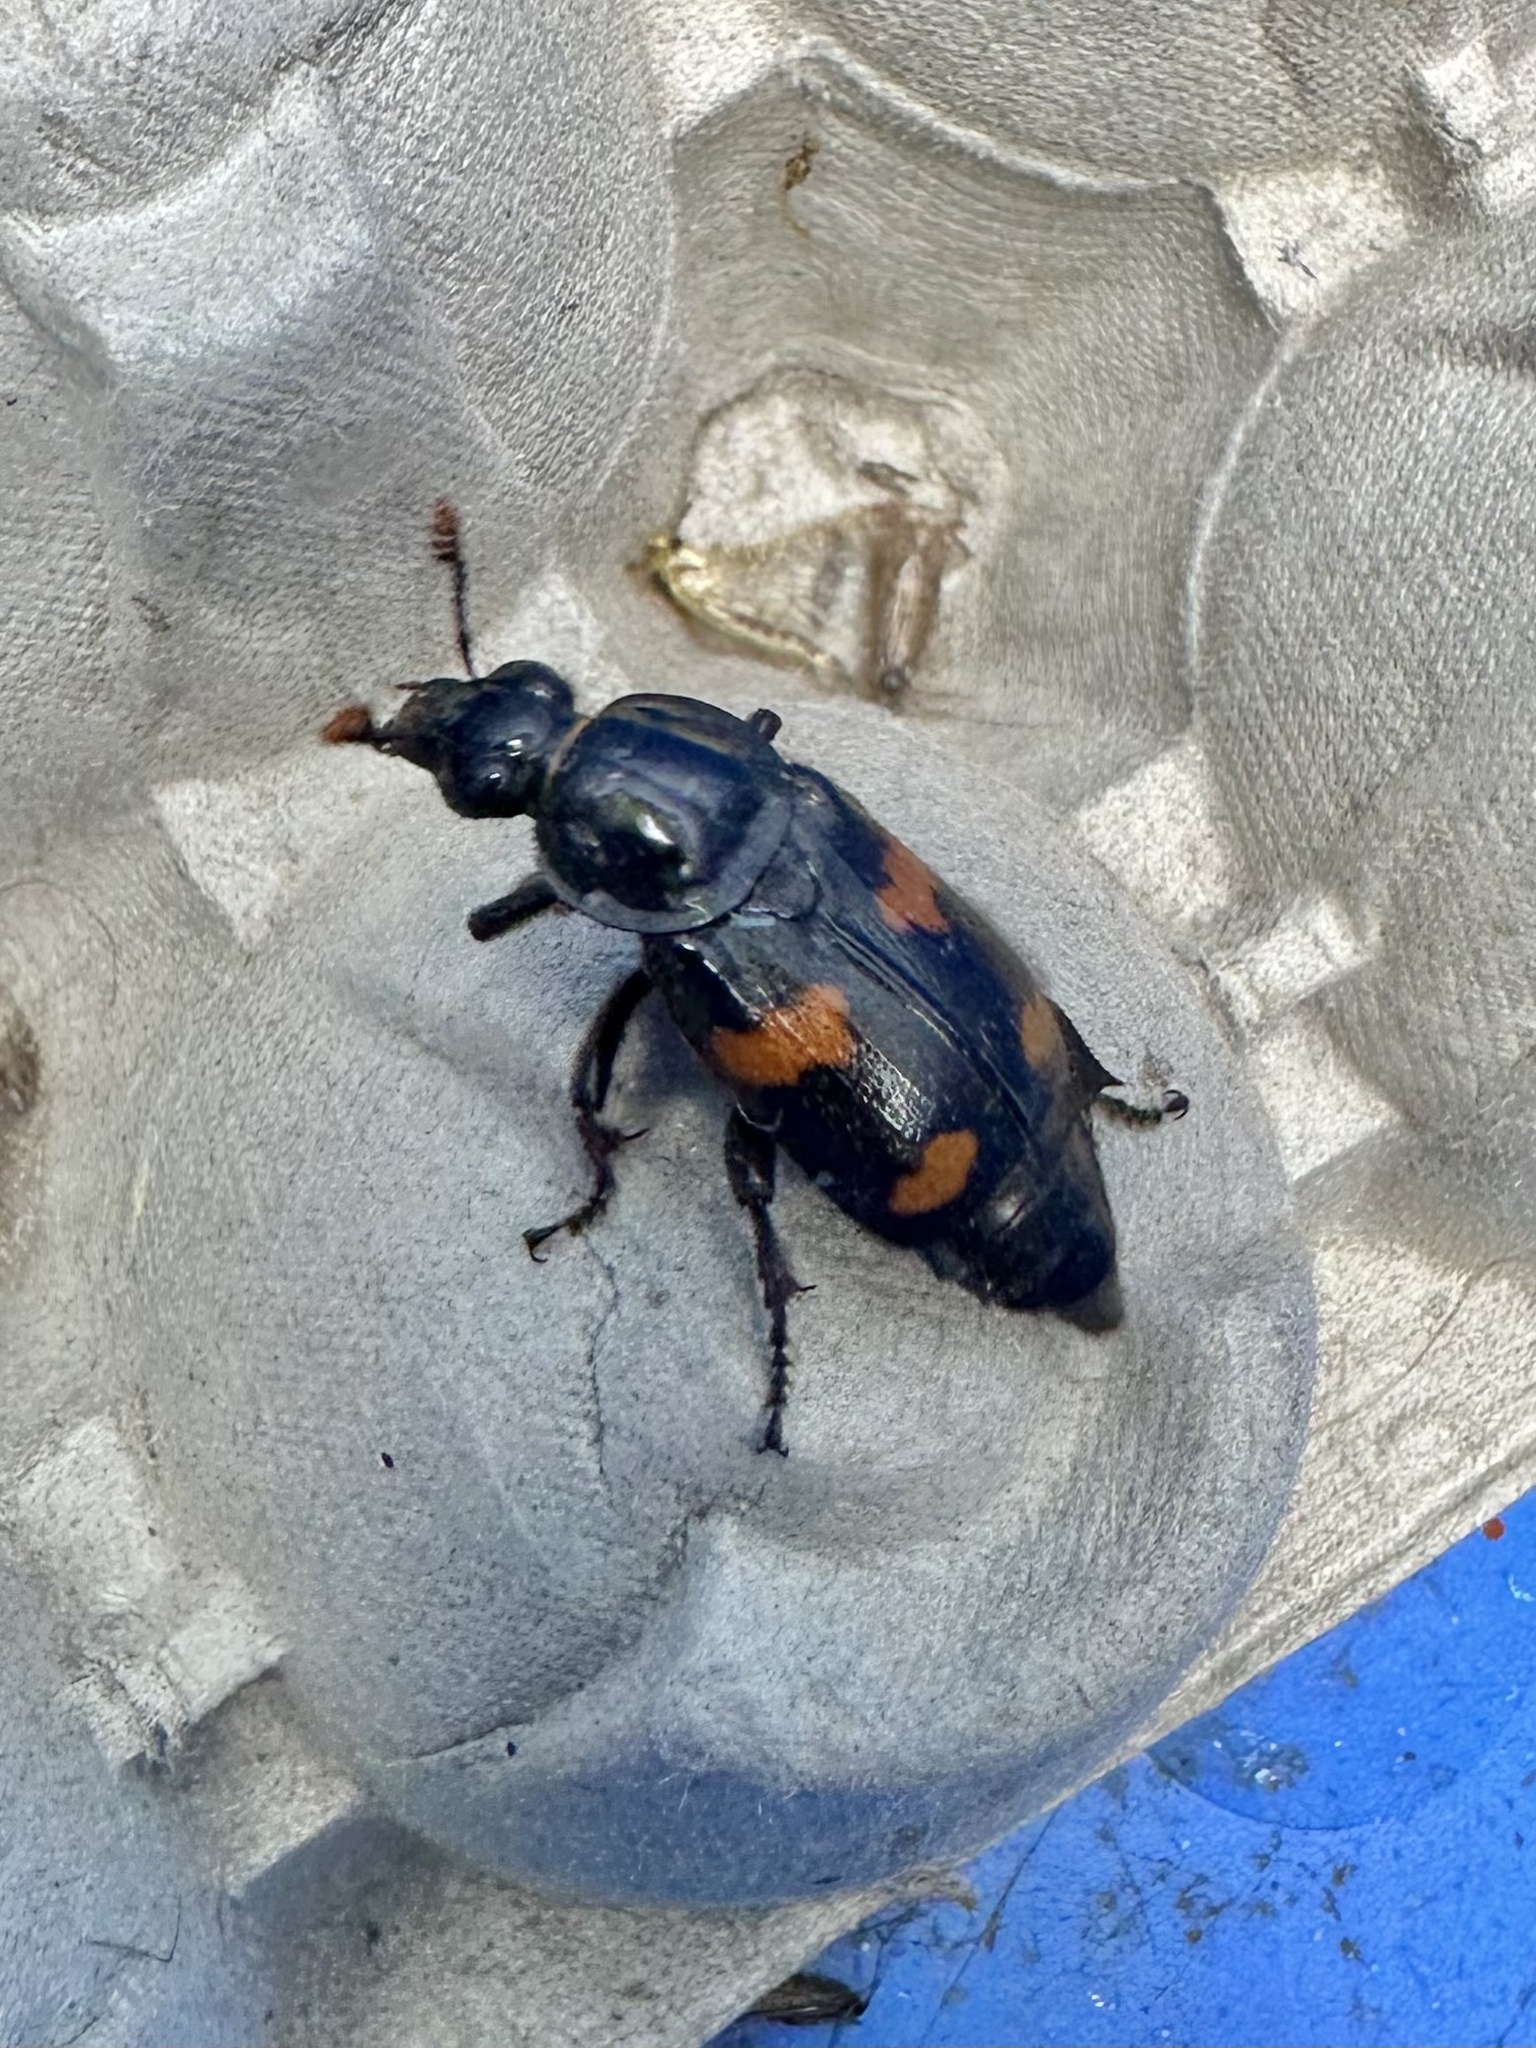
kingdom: Animalia
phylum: Arthropoda
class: Insecta
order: Coleoptera
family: Staphylinidae
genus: Nicrophorus
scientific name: Nicrophorus orbicollis
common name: Roundneck sexton beetle
